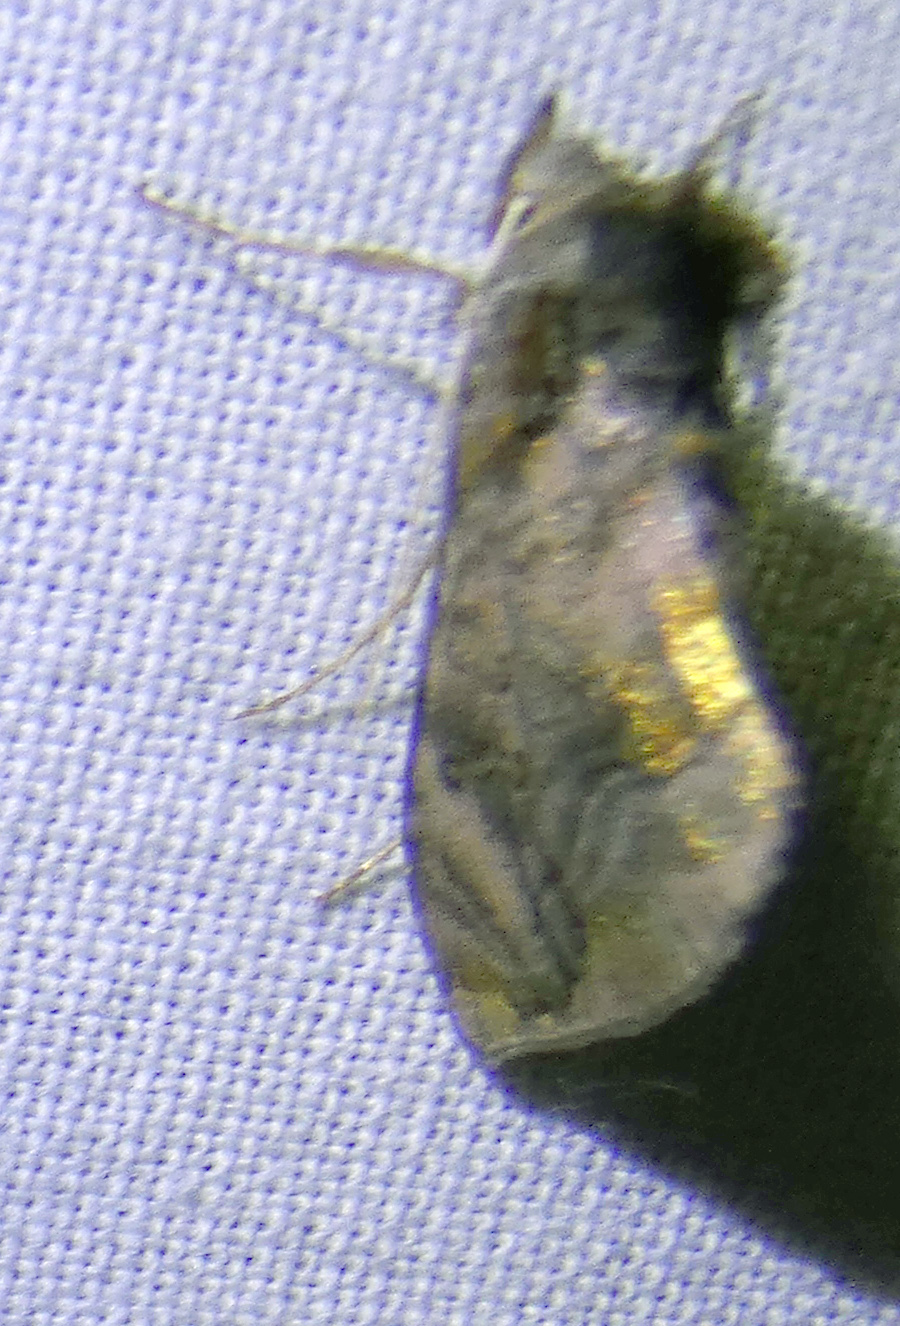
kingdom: Animalia
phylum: Arthropoda
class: Insecta
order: Lepidoptera
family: Noctuidae
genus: Lamprotes
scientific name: Lamprotes caureum
